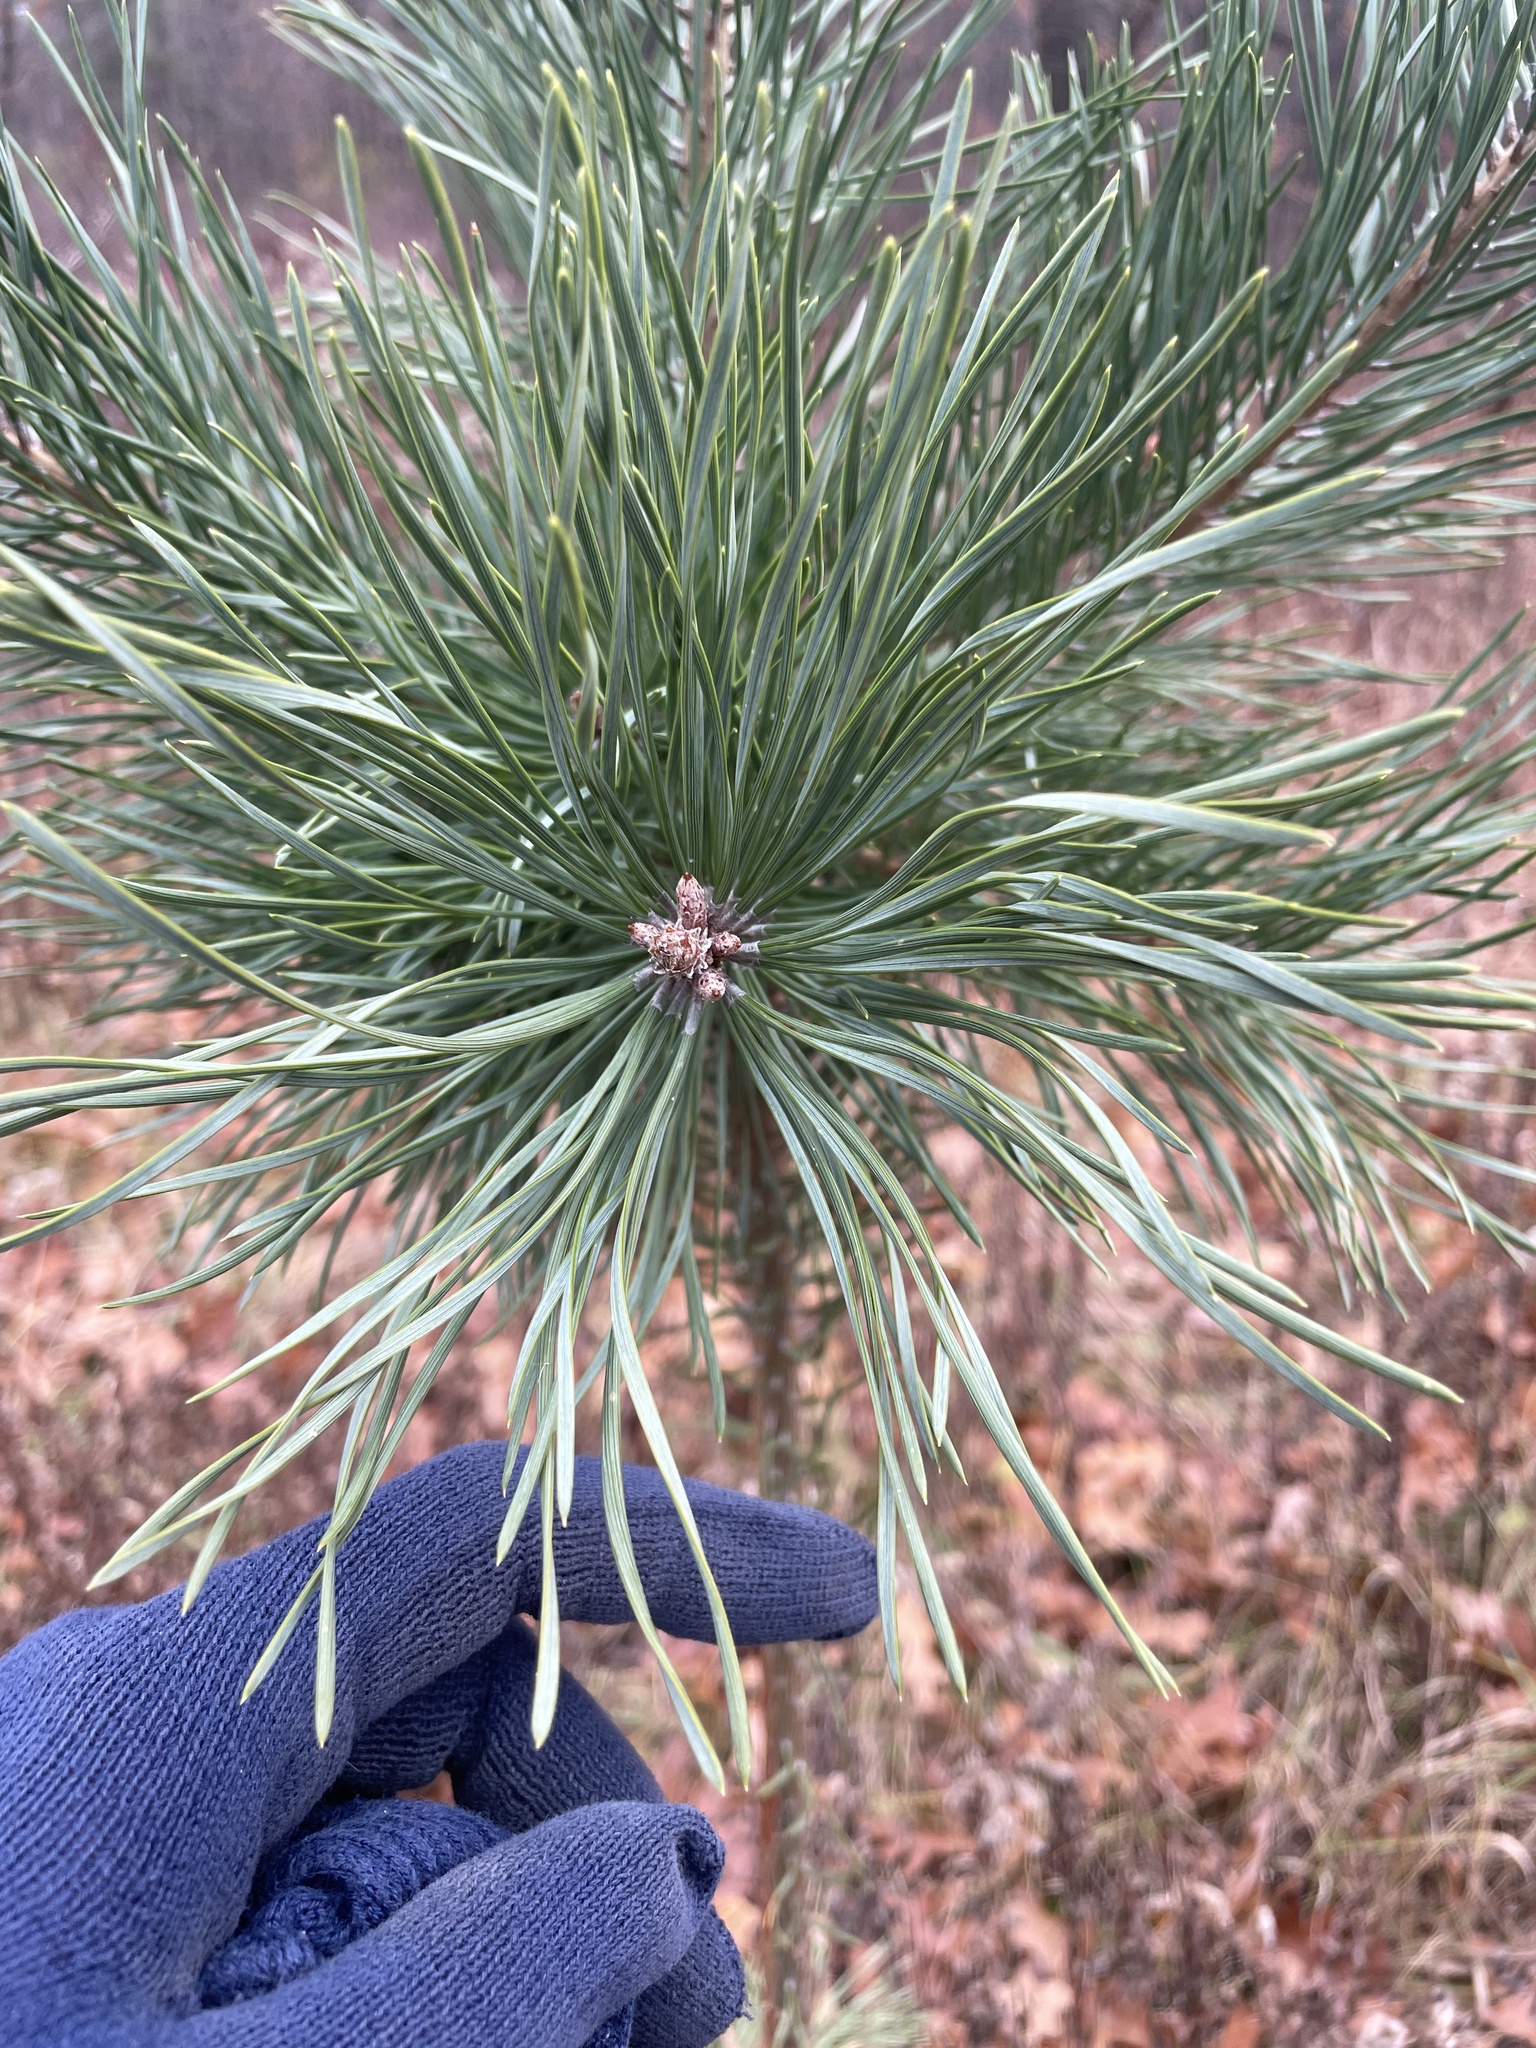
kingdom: Plantae
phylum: Tracheophyta
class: Pinopsida
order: Pinales
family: Pinaceae
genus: Pinus
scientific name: Pinus sylvestris
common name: Scots pine
